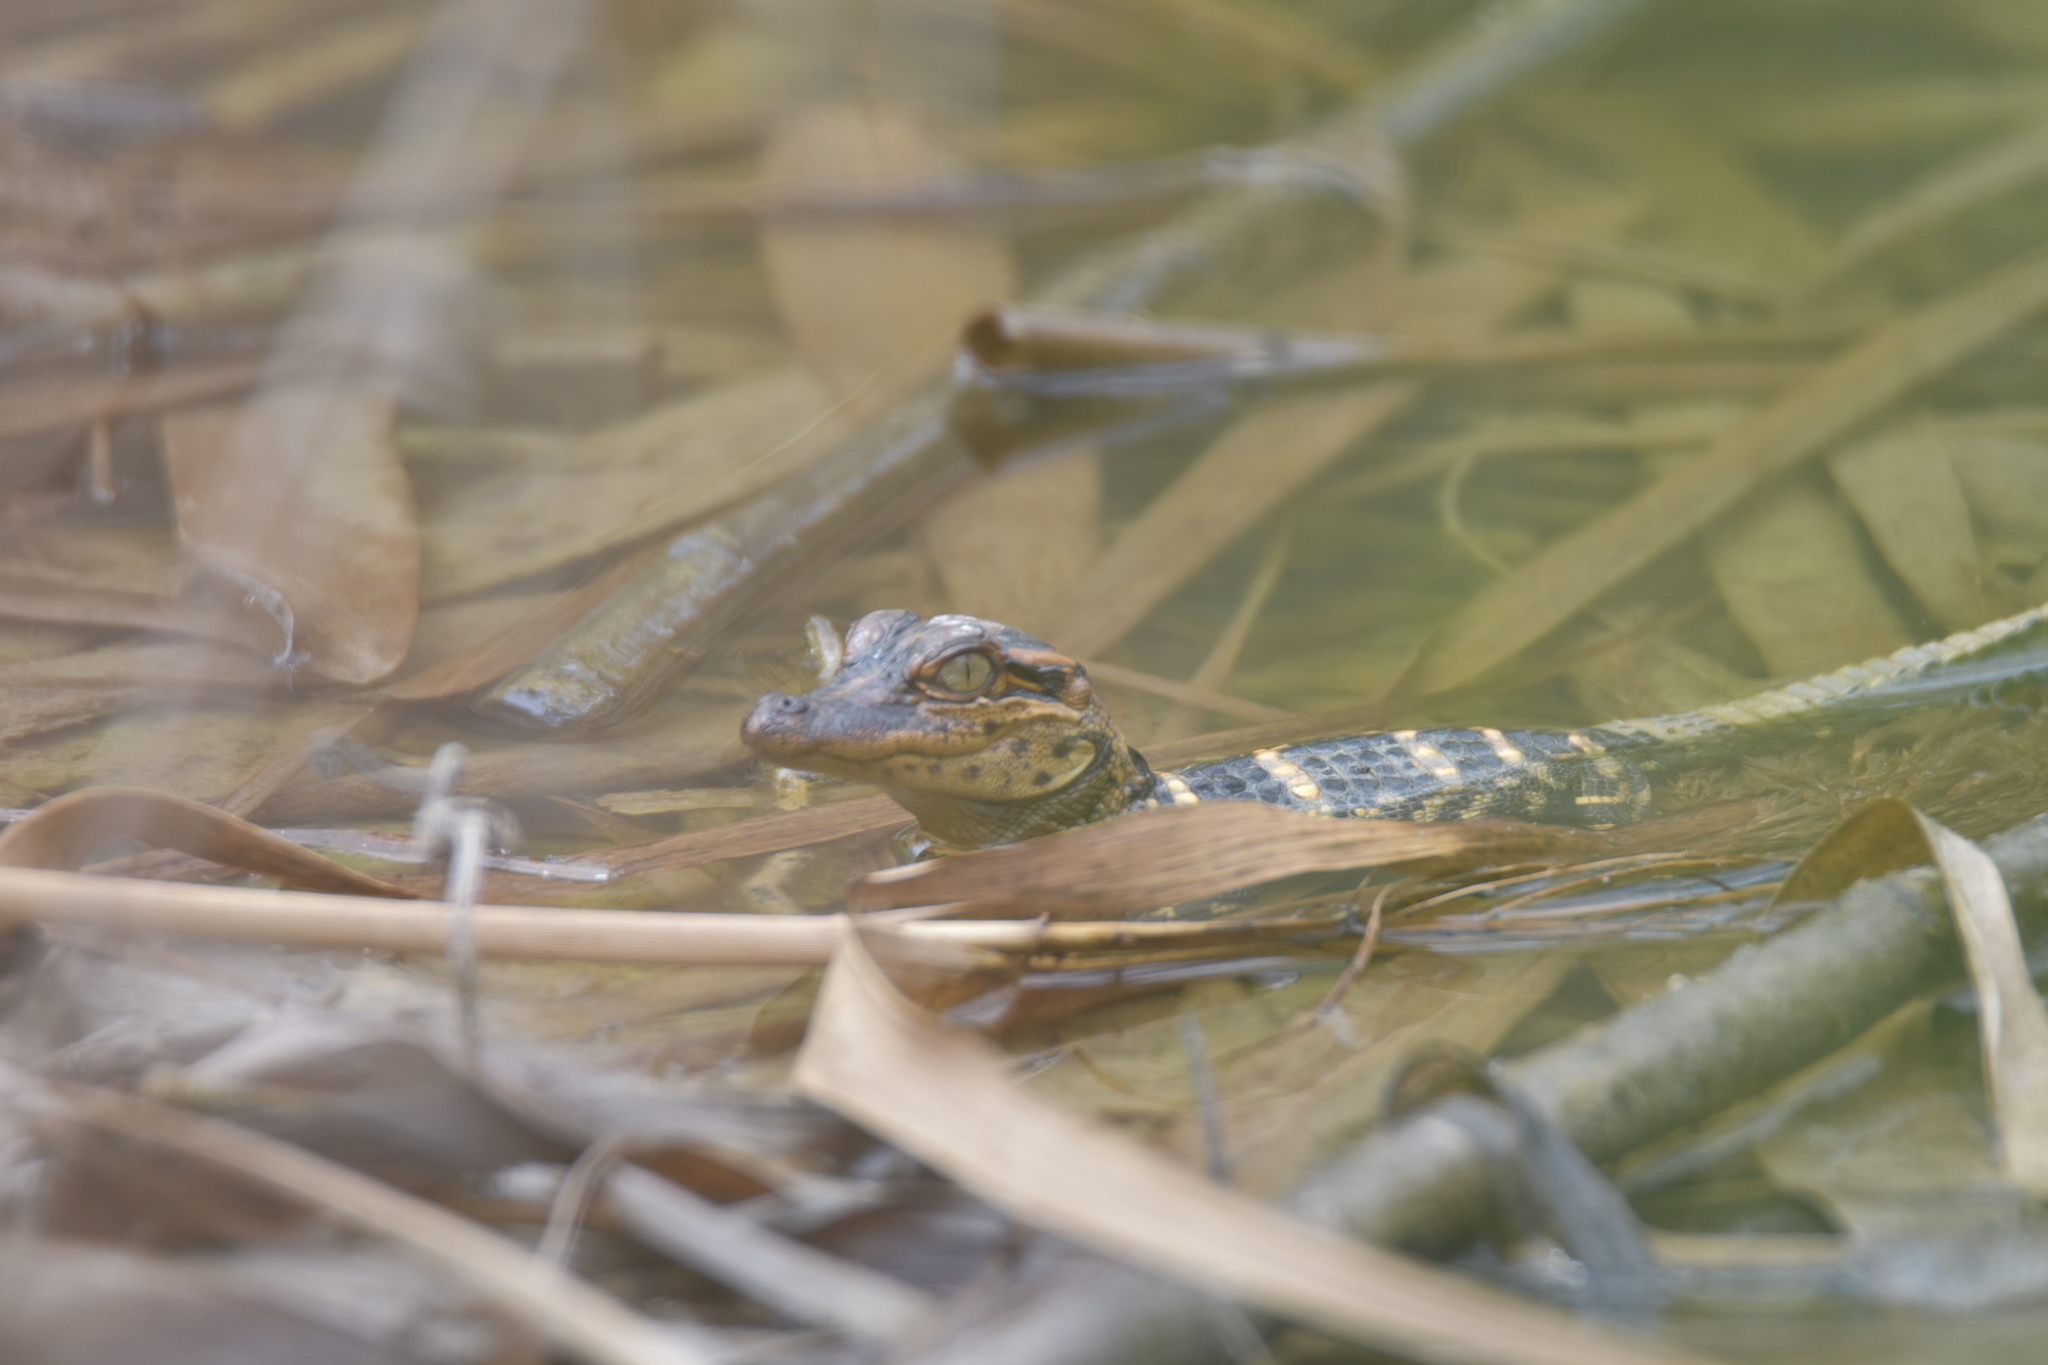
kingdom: Animalia
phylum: Chordata
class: Crocodylia
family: Alligatoridae
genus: Alligator
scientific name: Alligator mississippiensis
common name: American alligator
